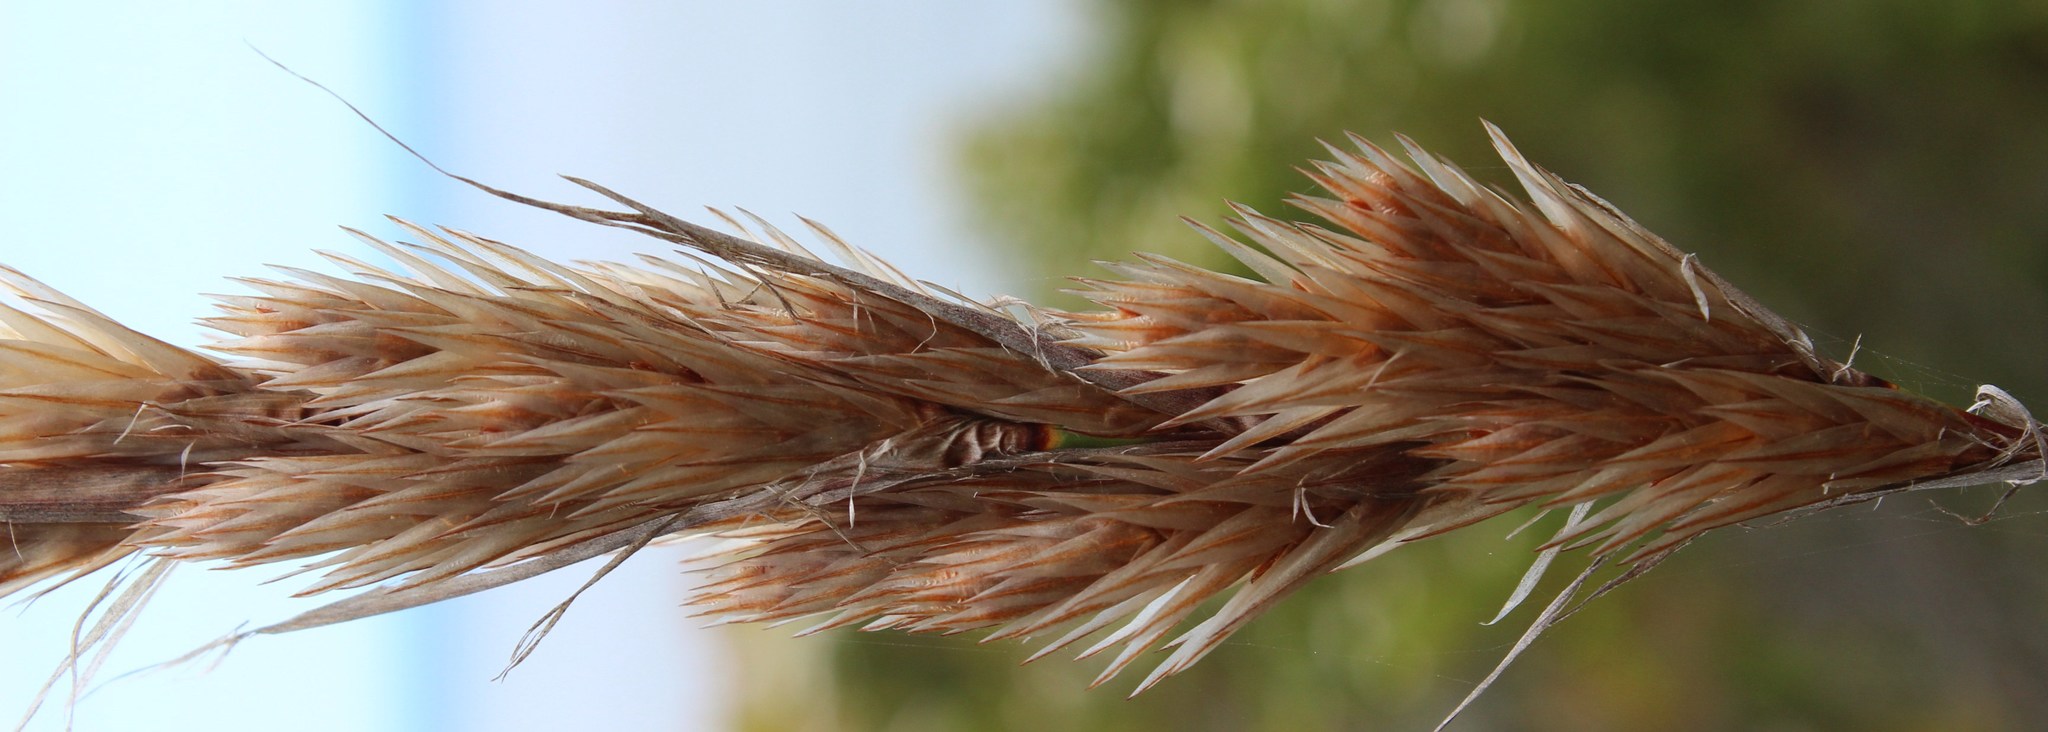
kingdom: Plantae
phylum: Tracheophyta
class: Liliopsida
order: Poales
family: Restionaceae
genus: Thamnochortus
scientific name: Thamnochortus cinereus
